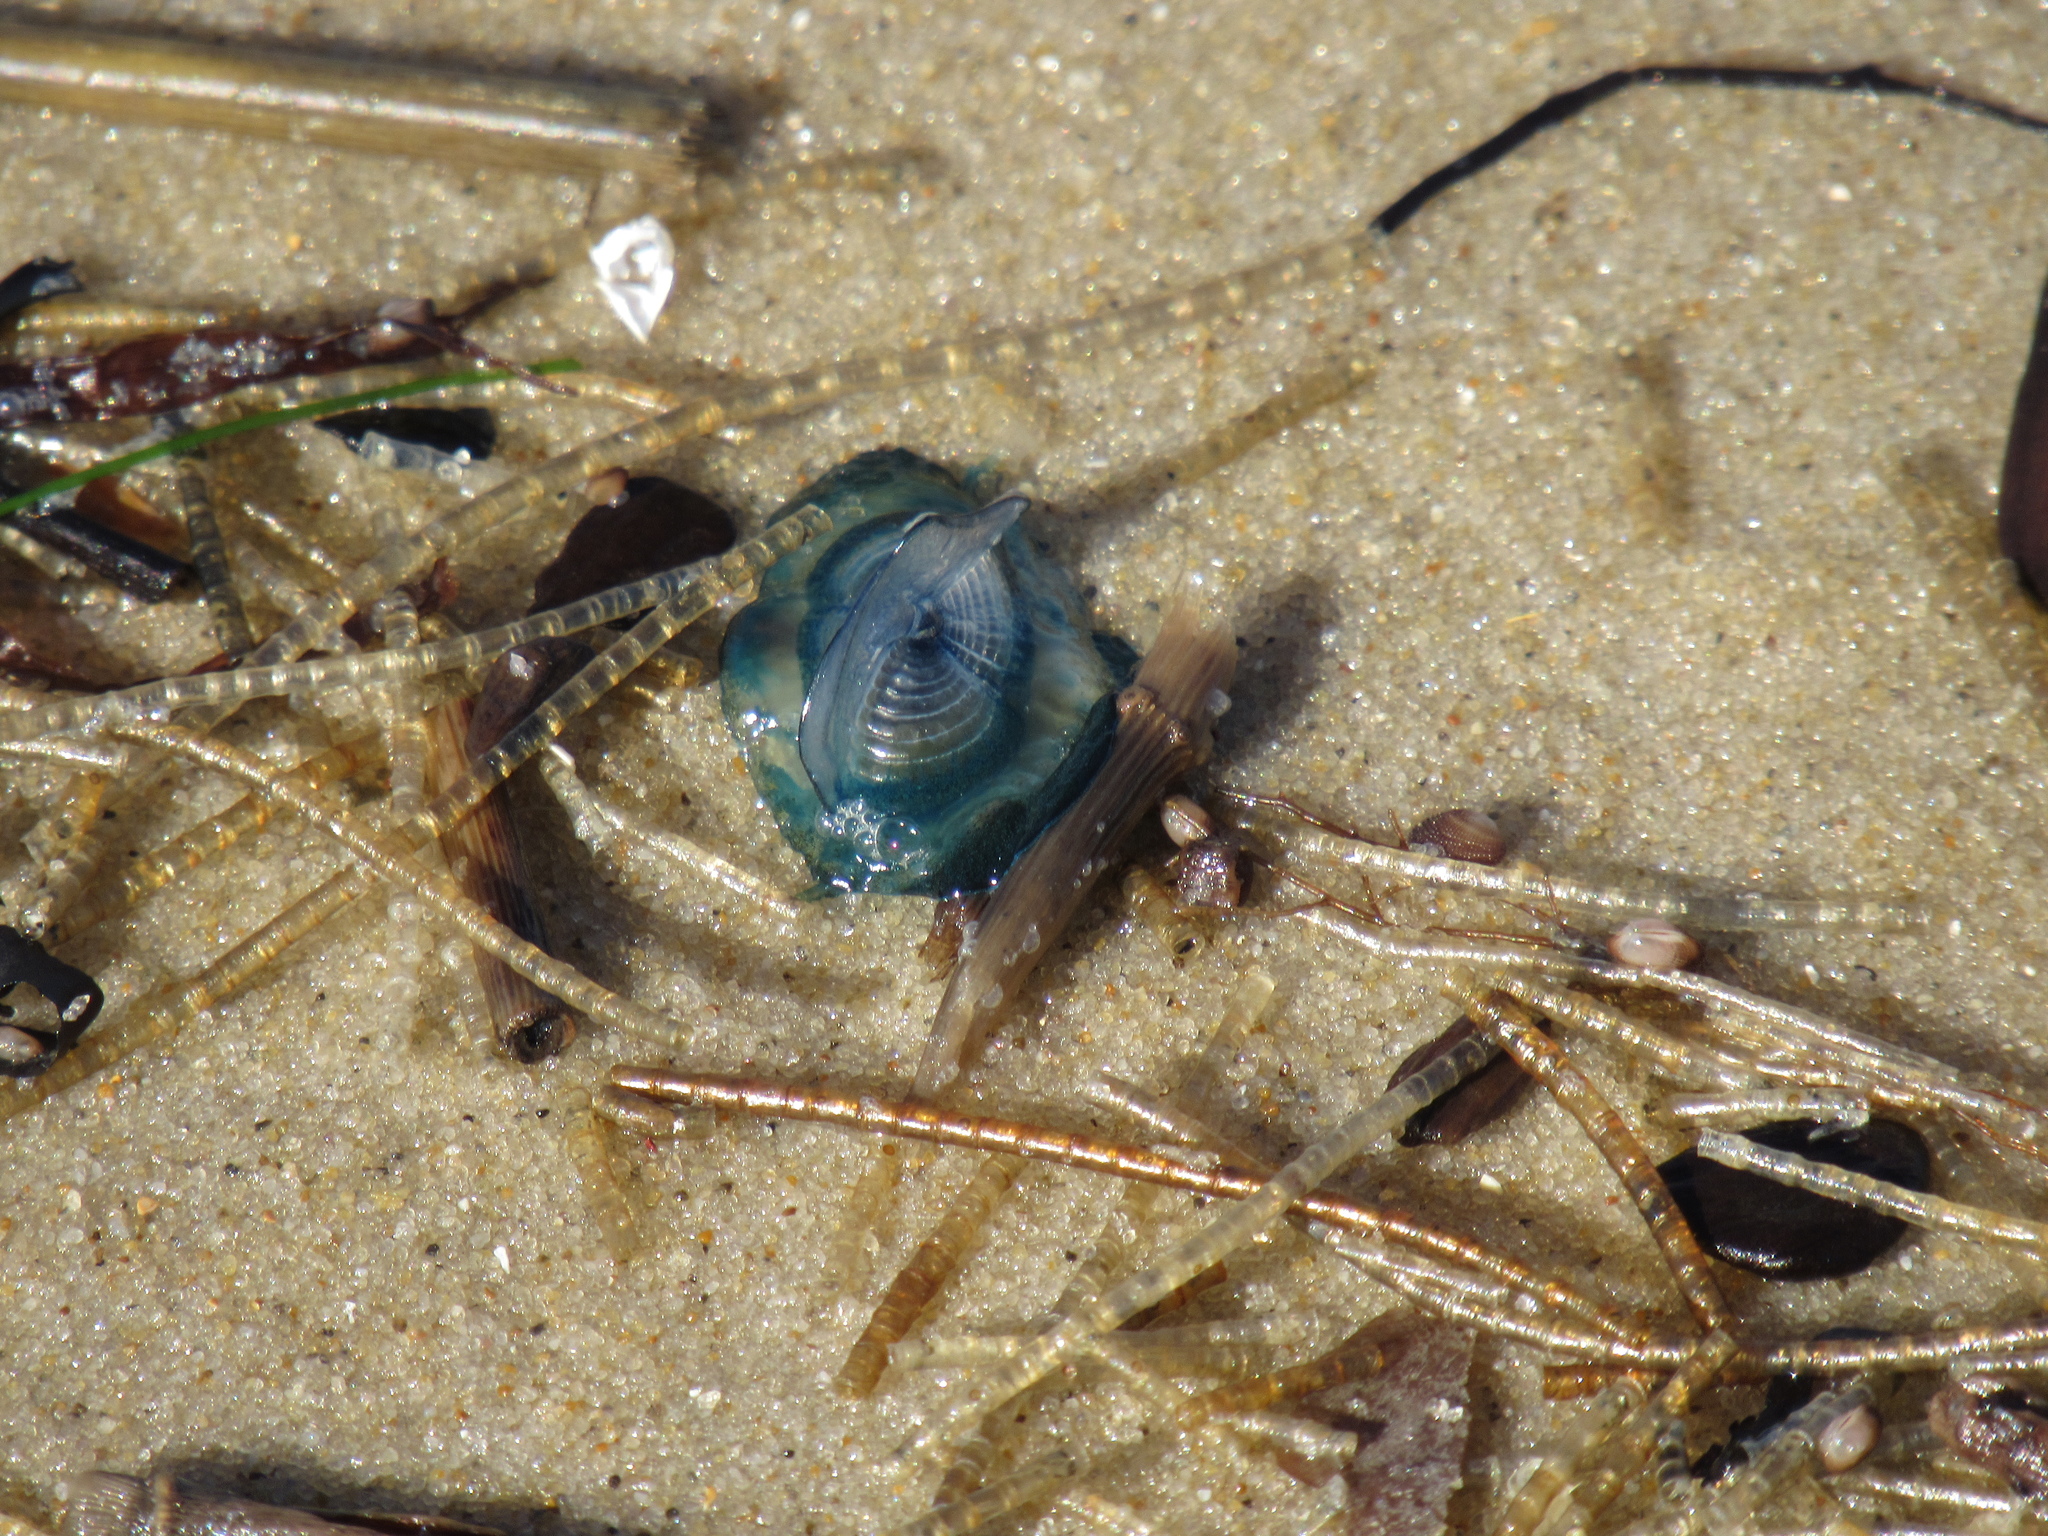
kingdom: Animalia
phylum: Cnidaria
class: Hydrozoa
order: Anthoathecata
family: Porpitidae
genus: Velella
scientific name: Velella velella
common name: By-the-wind-sailor
